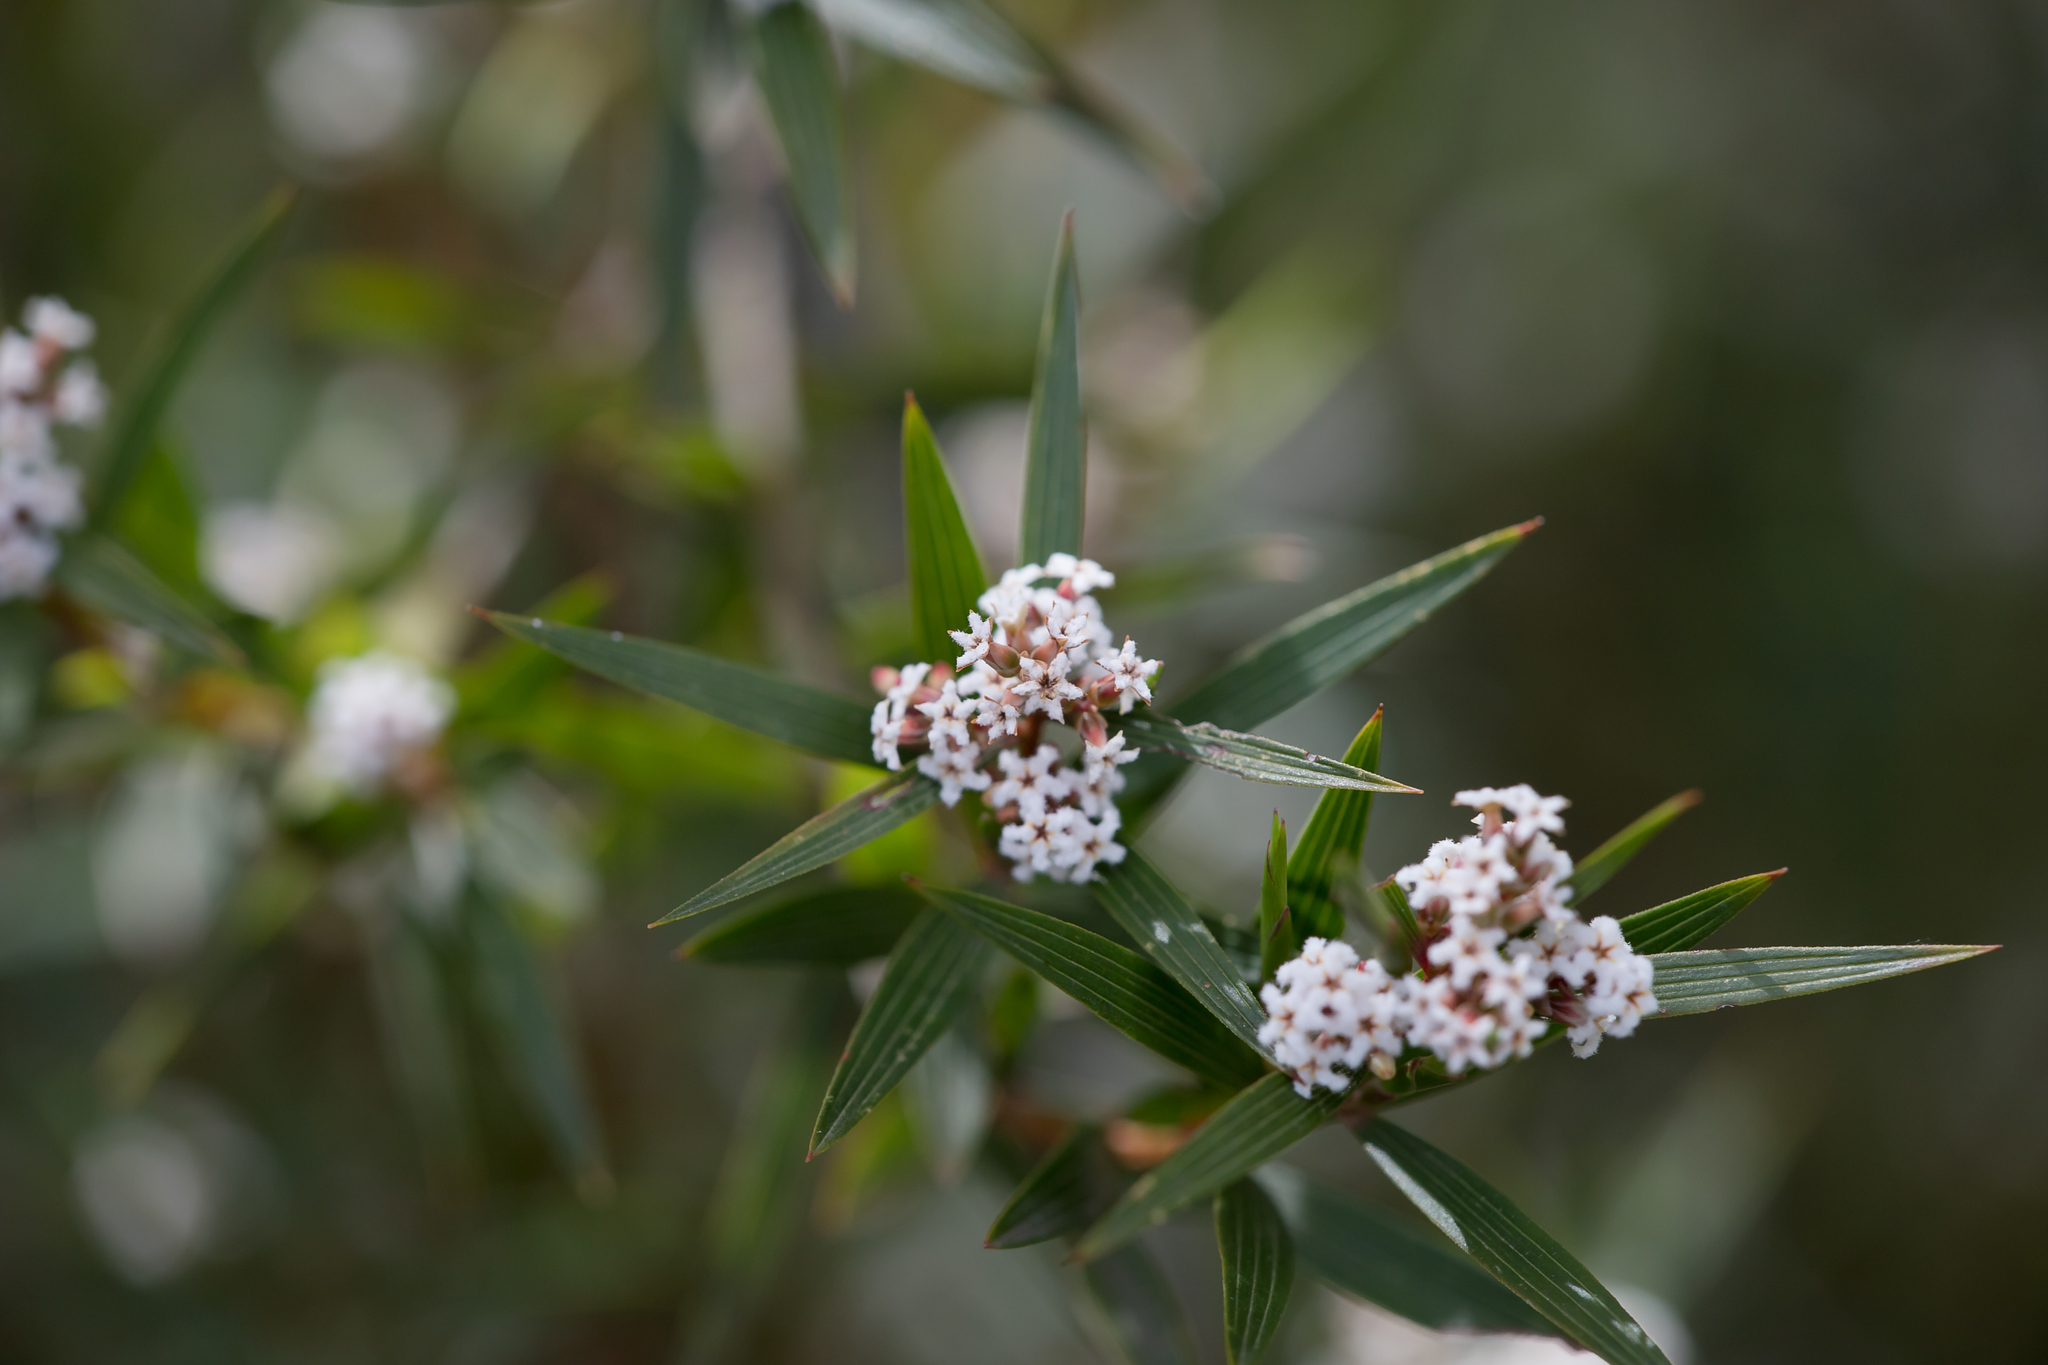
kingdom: Plantae
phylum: Tracheophyta
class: Magnoliopsida
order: Ericales
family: Ericaceae
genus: Leucopogon
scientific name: Leucopogon neurophyllus
